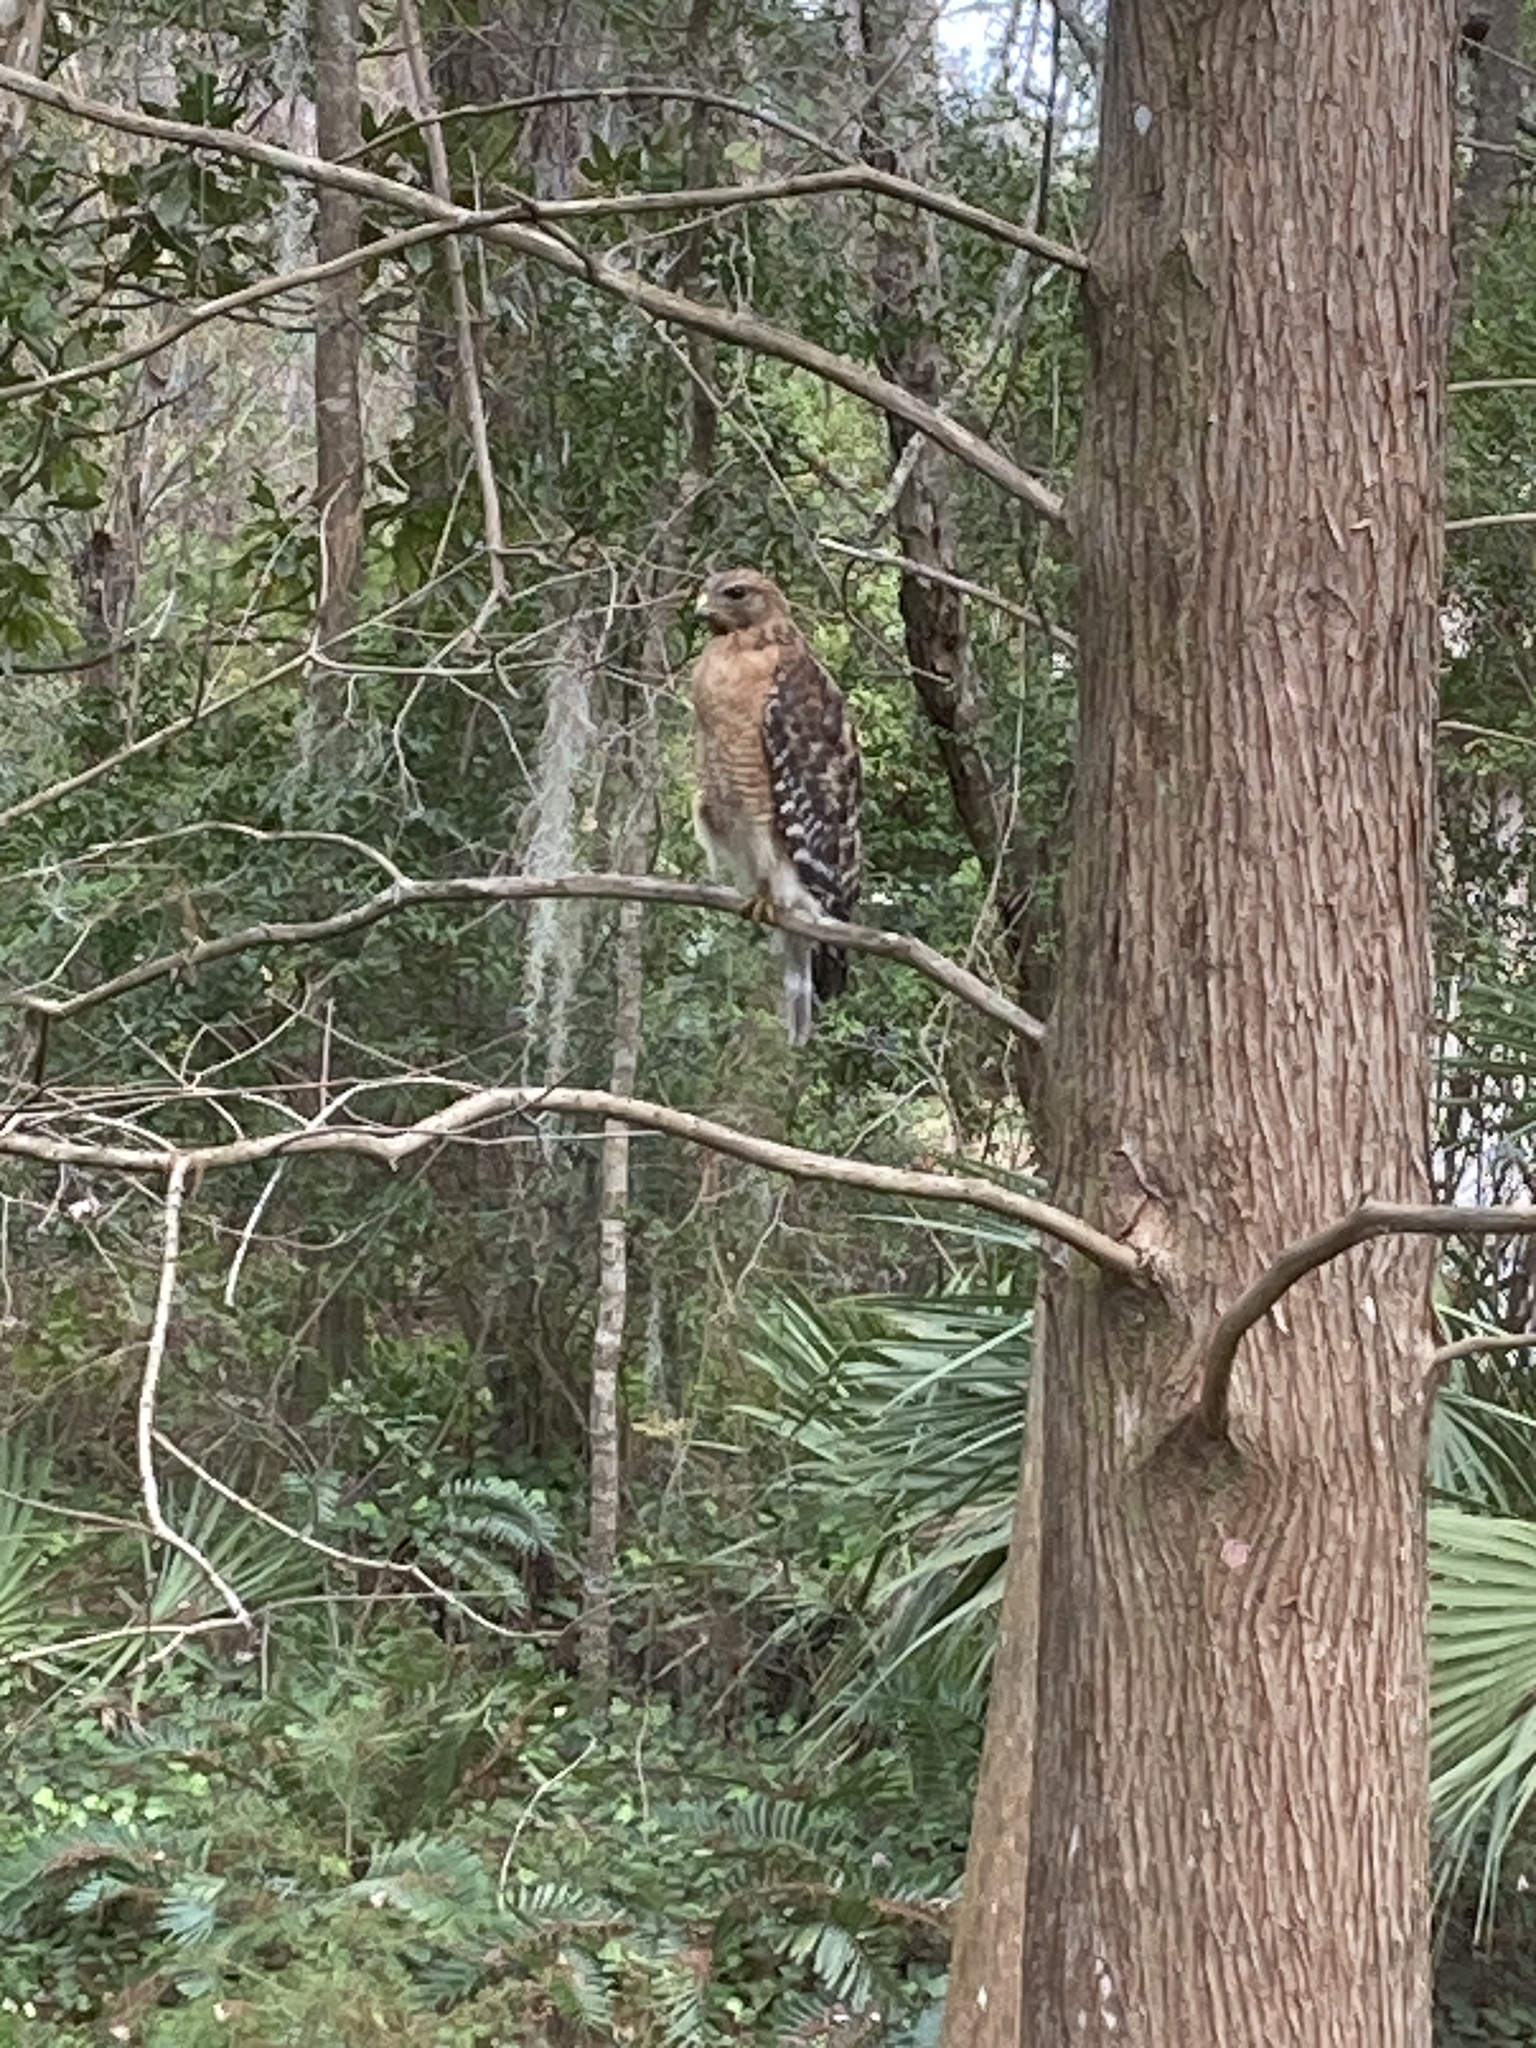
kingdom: Animalia
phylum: Chordata
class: Aves
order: Accipitriformes
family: Accipitridae
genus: Buteo
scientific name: Buteo lineatus
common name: Red-shouldered hawk
